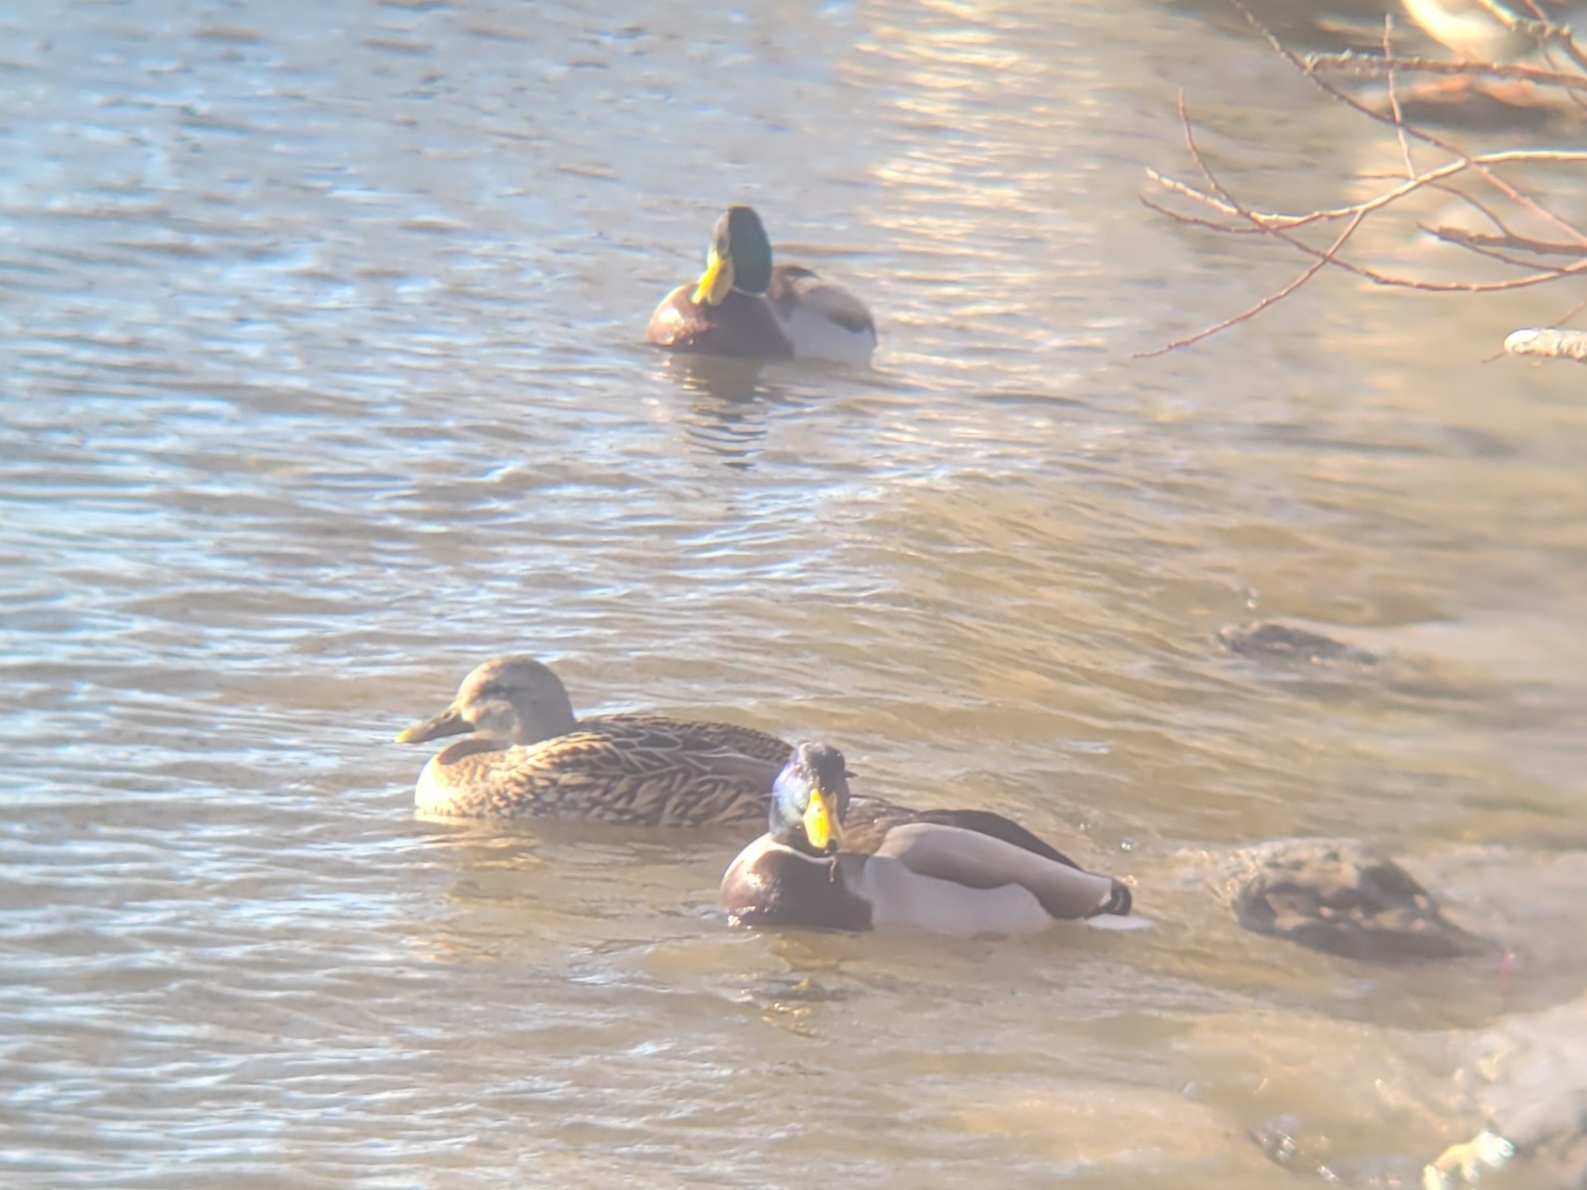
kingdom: Animalia
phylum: Chordata
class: Aves
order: Anseriformes
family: Anatidae
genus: Anas
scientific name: Anas platyrhynchos
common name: Mallard
